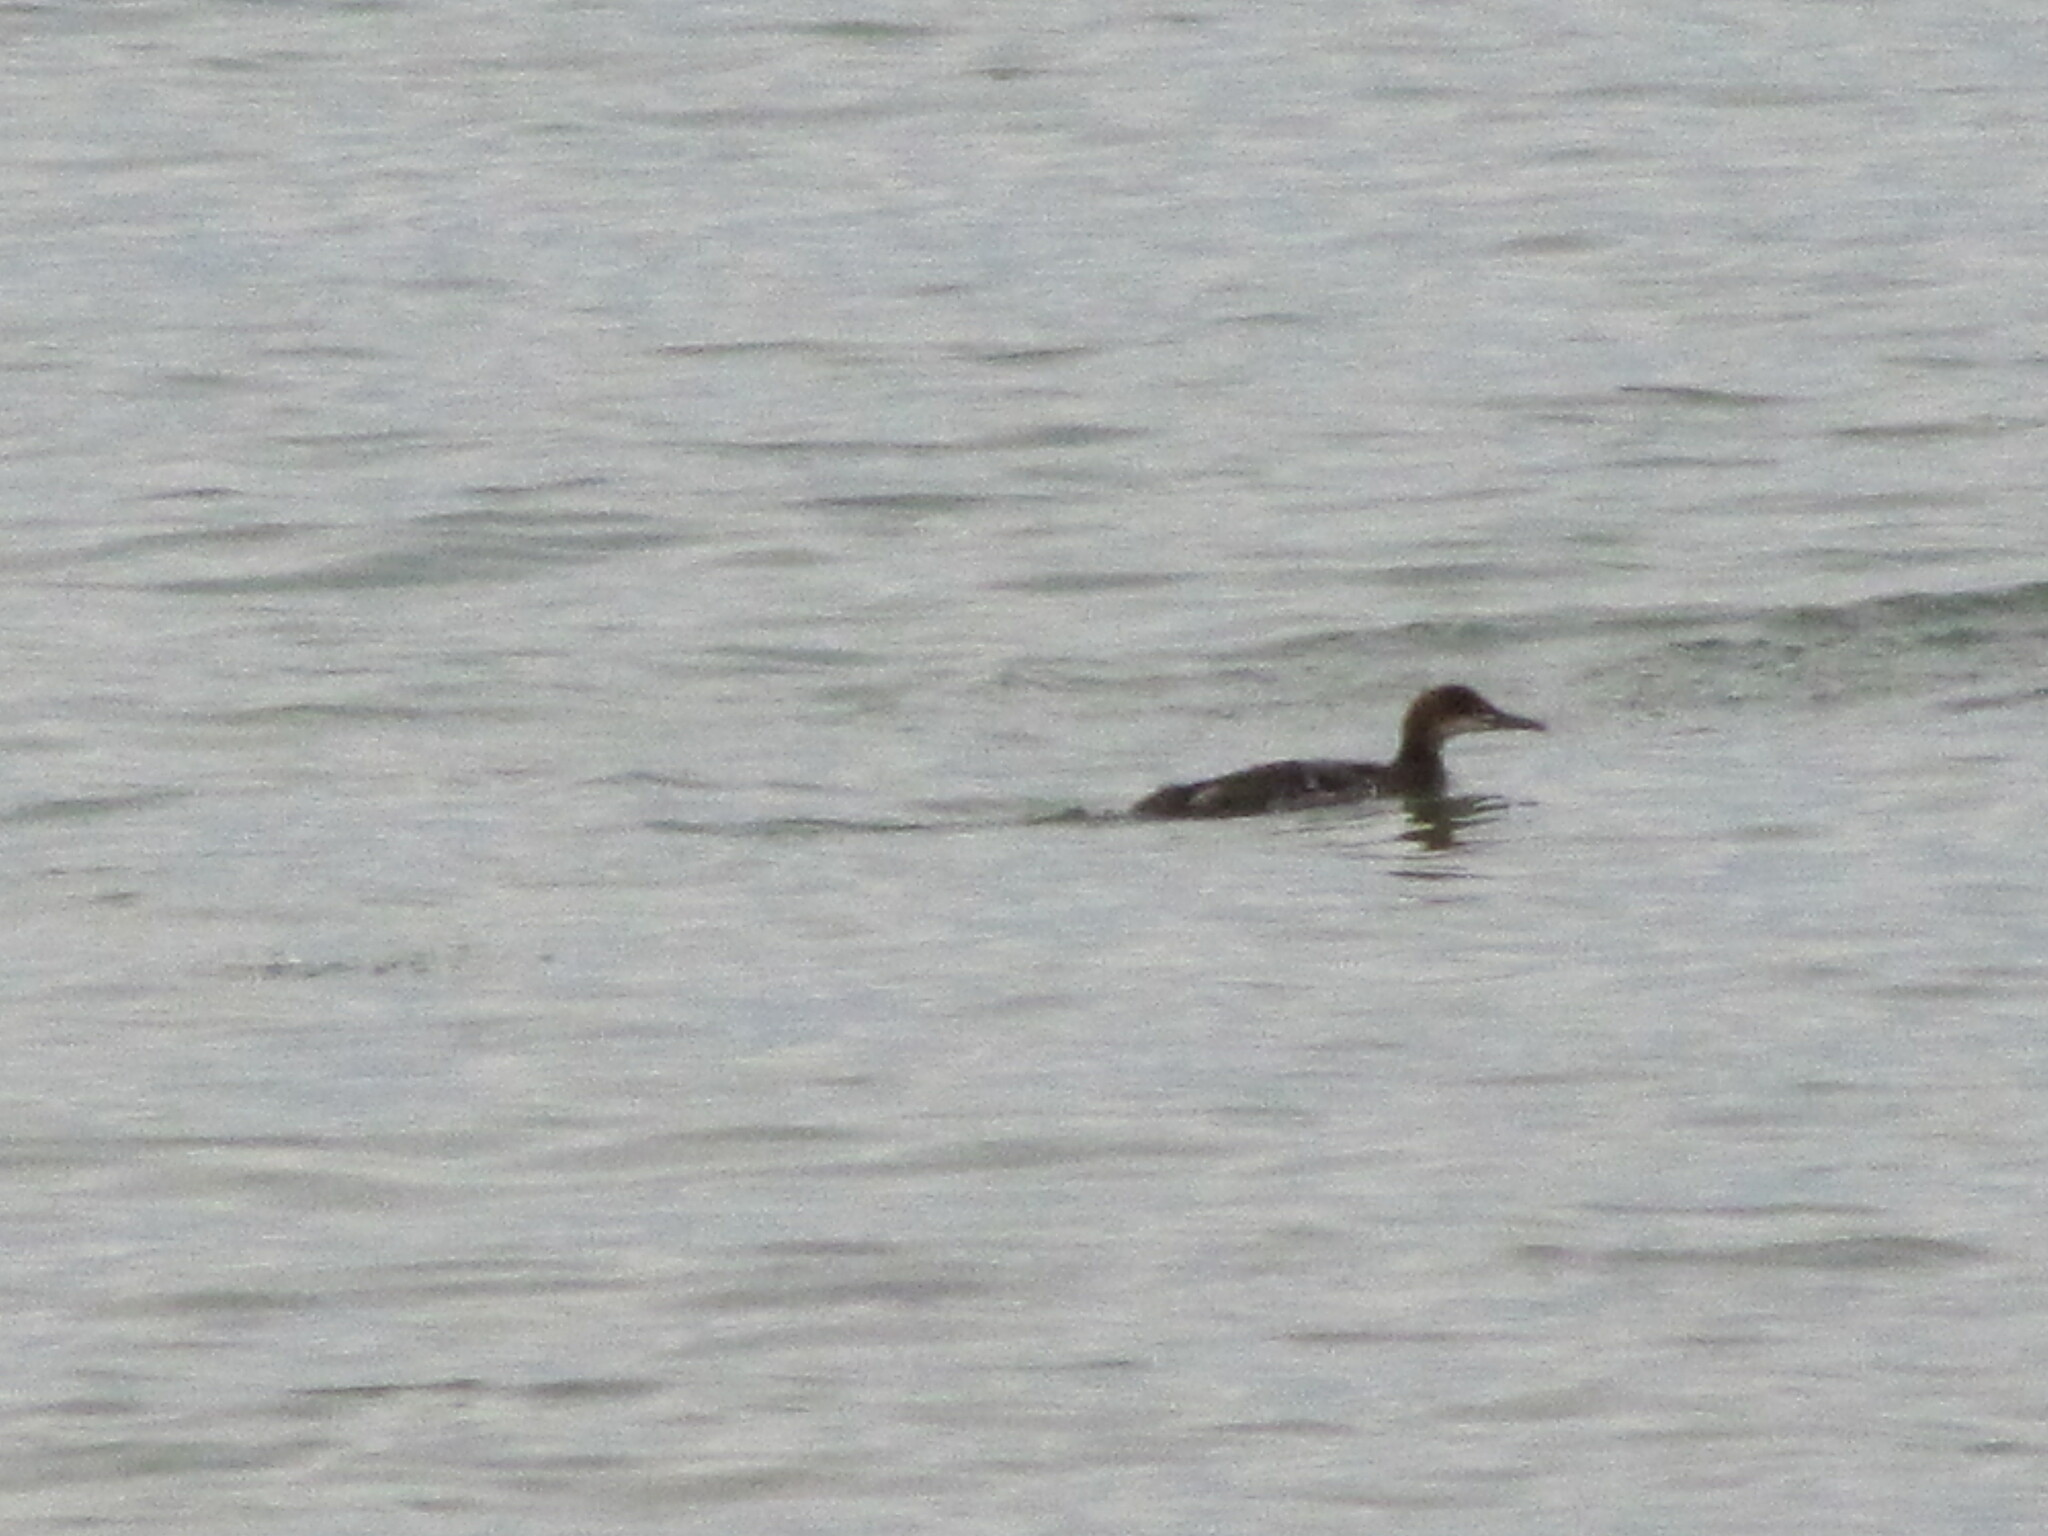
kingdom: Animalia
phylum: Chordata
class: Aves
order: Anseriformes
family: Anatidae
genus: Mergus
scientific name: Mergus merganser
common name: Common merganser
